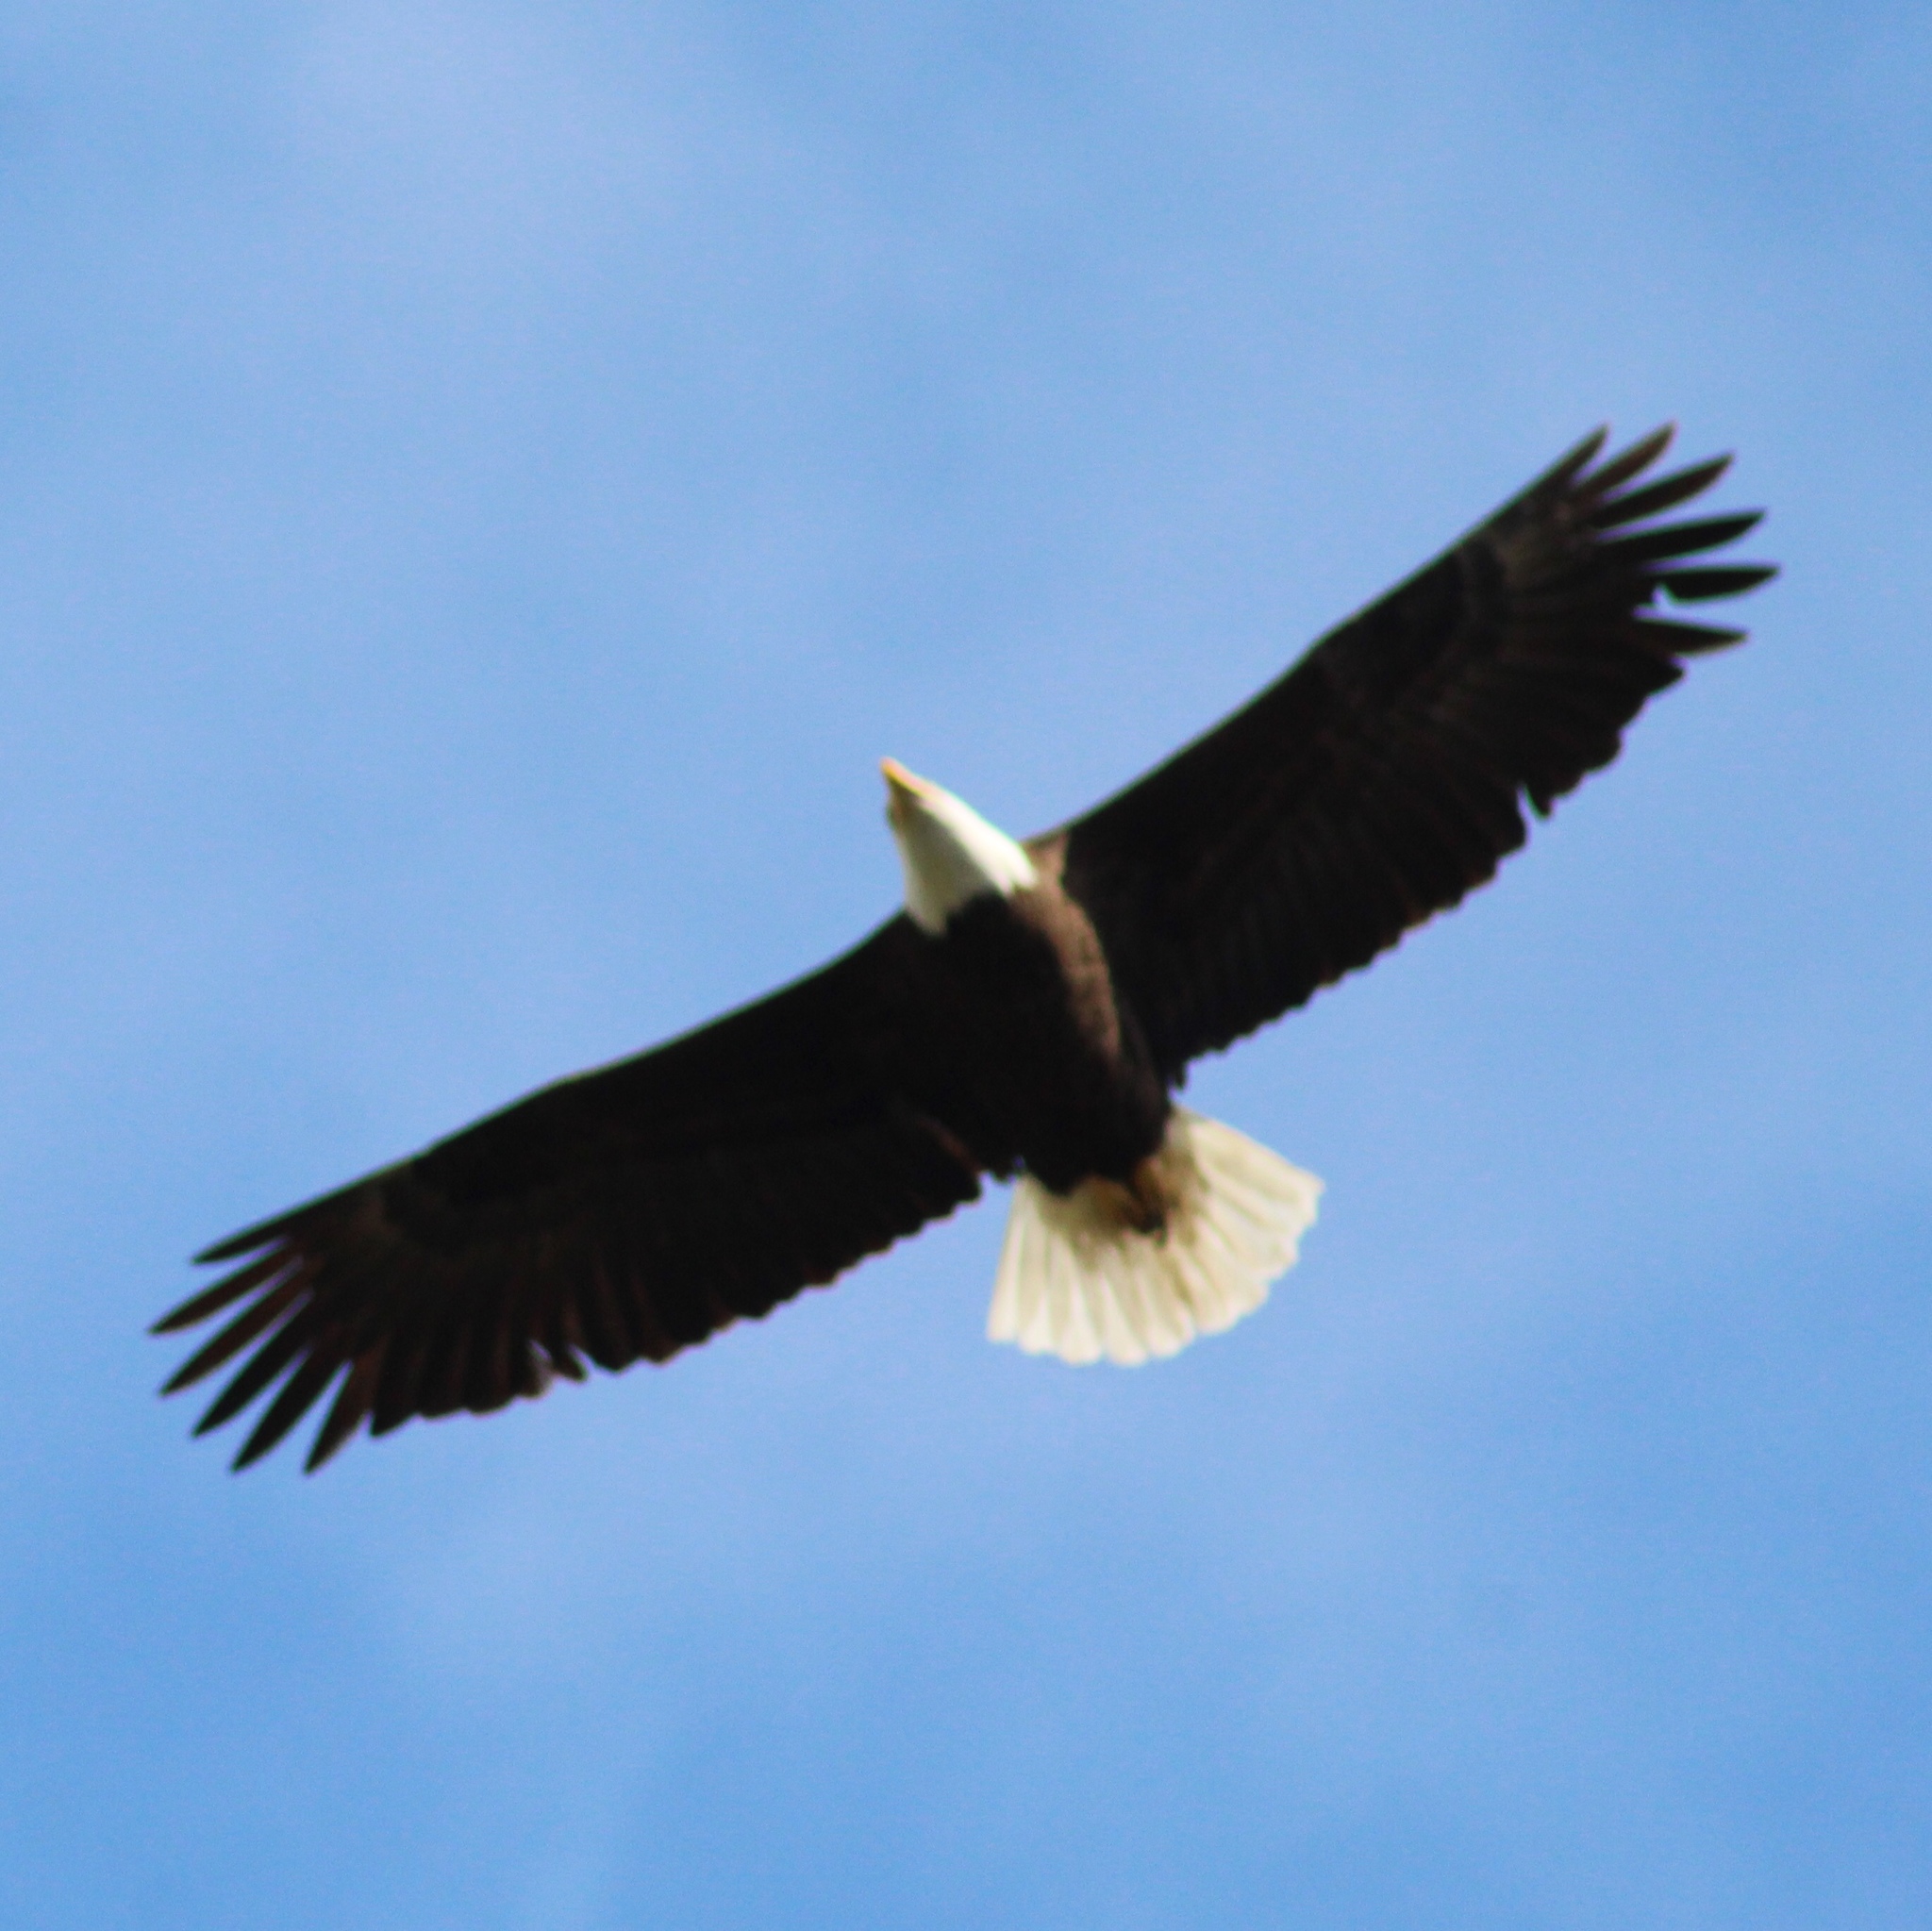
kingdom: Animalia
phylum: Chordata
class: Aves
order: Accipitriformes
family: Accipitridae
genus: Haliaeetus
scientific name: Haliaeetus leucocephalus
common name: Bald eagle
